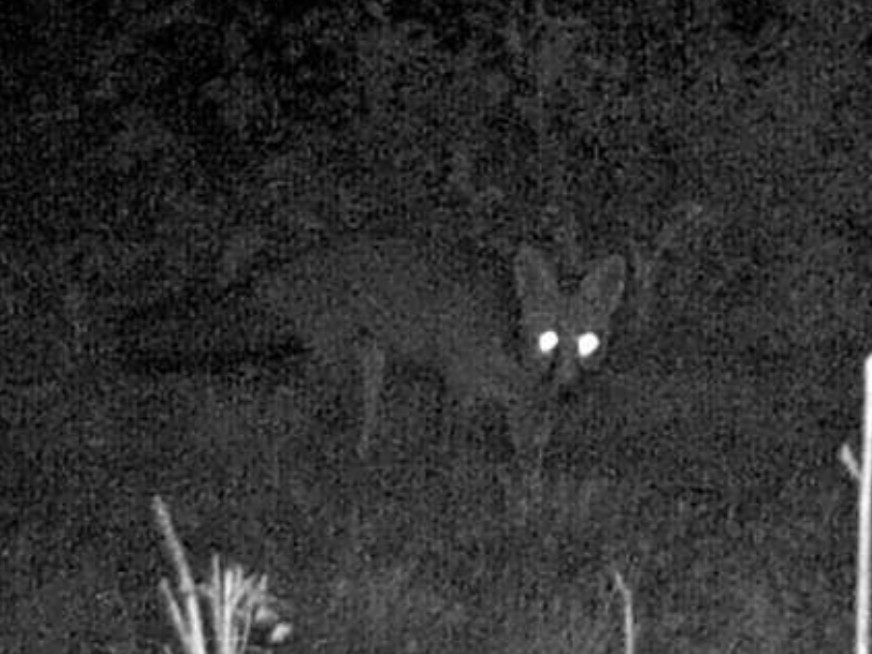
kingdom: Animalia
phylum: Chordata
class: Mammalia
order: Carnivora
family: Canidae
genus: Vulpes
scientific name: Vulpes vulpes
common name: Red fox
